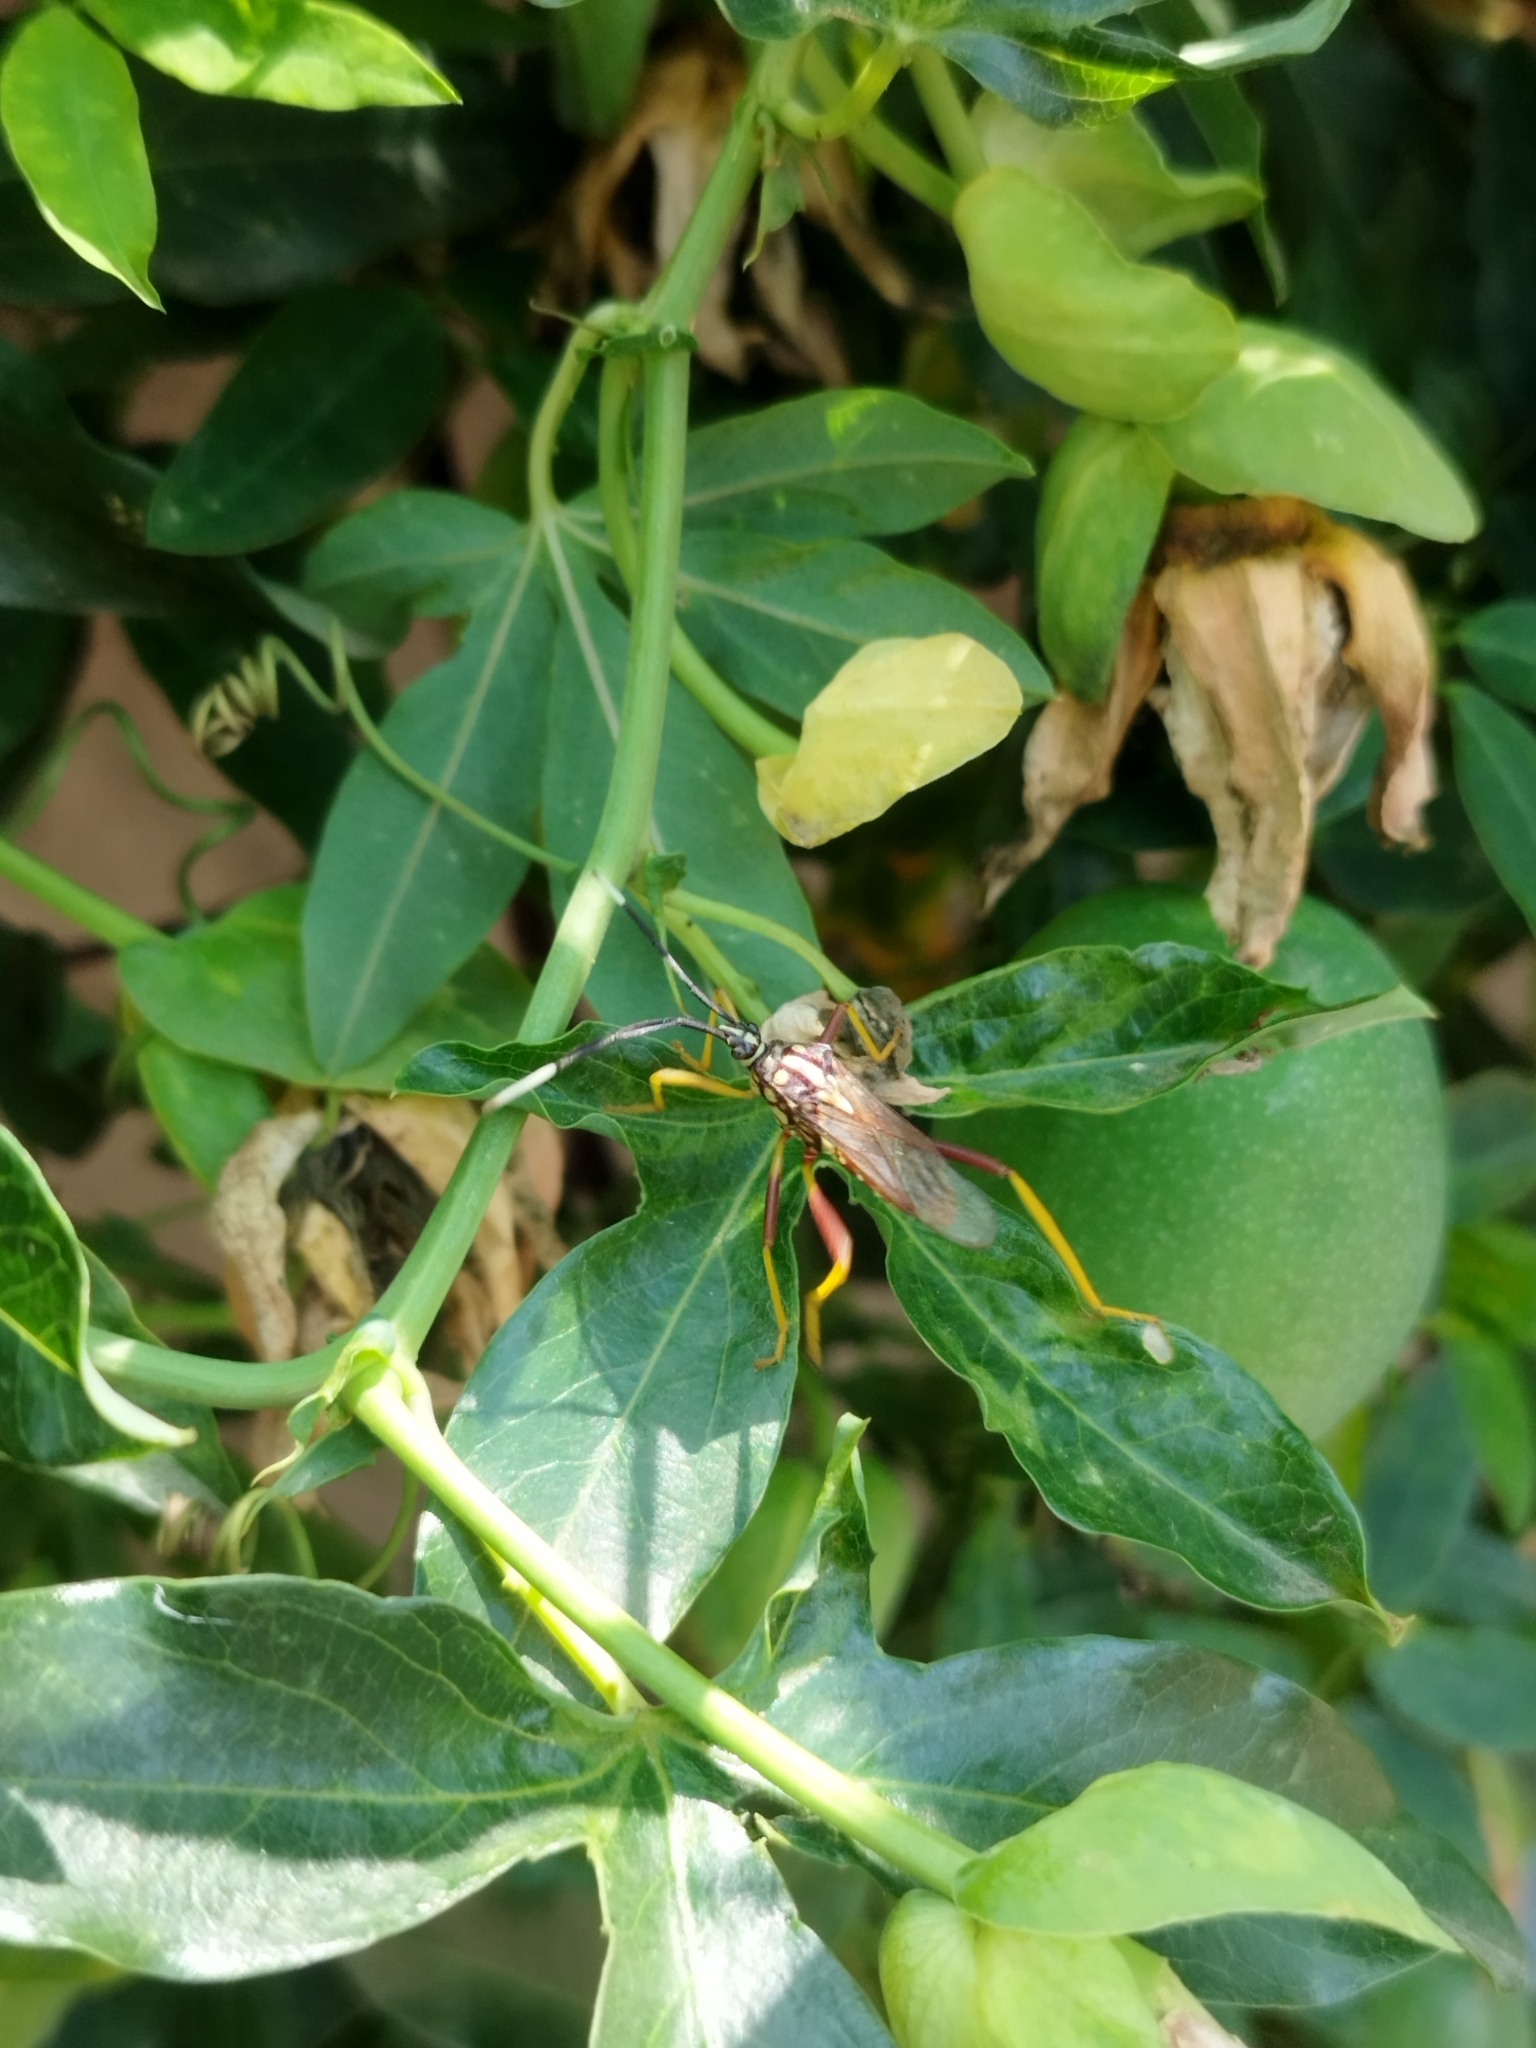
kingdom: Animalia
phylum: Arthropoda
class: Insecta
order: Hemiptera
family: Coreidae
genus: Holhymenia
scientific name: Holhymenia histrio
